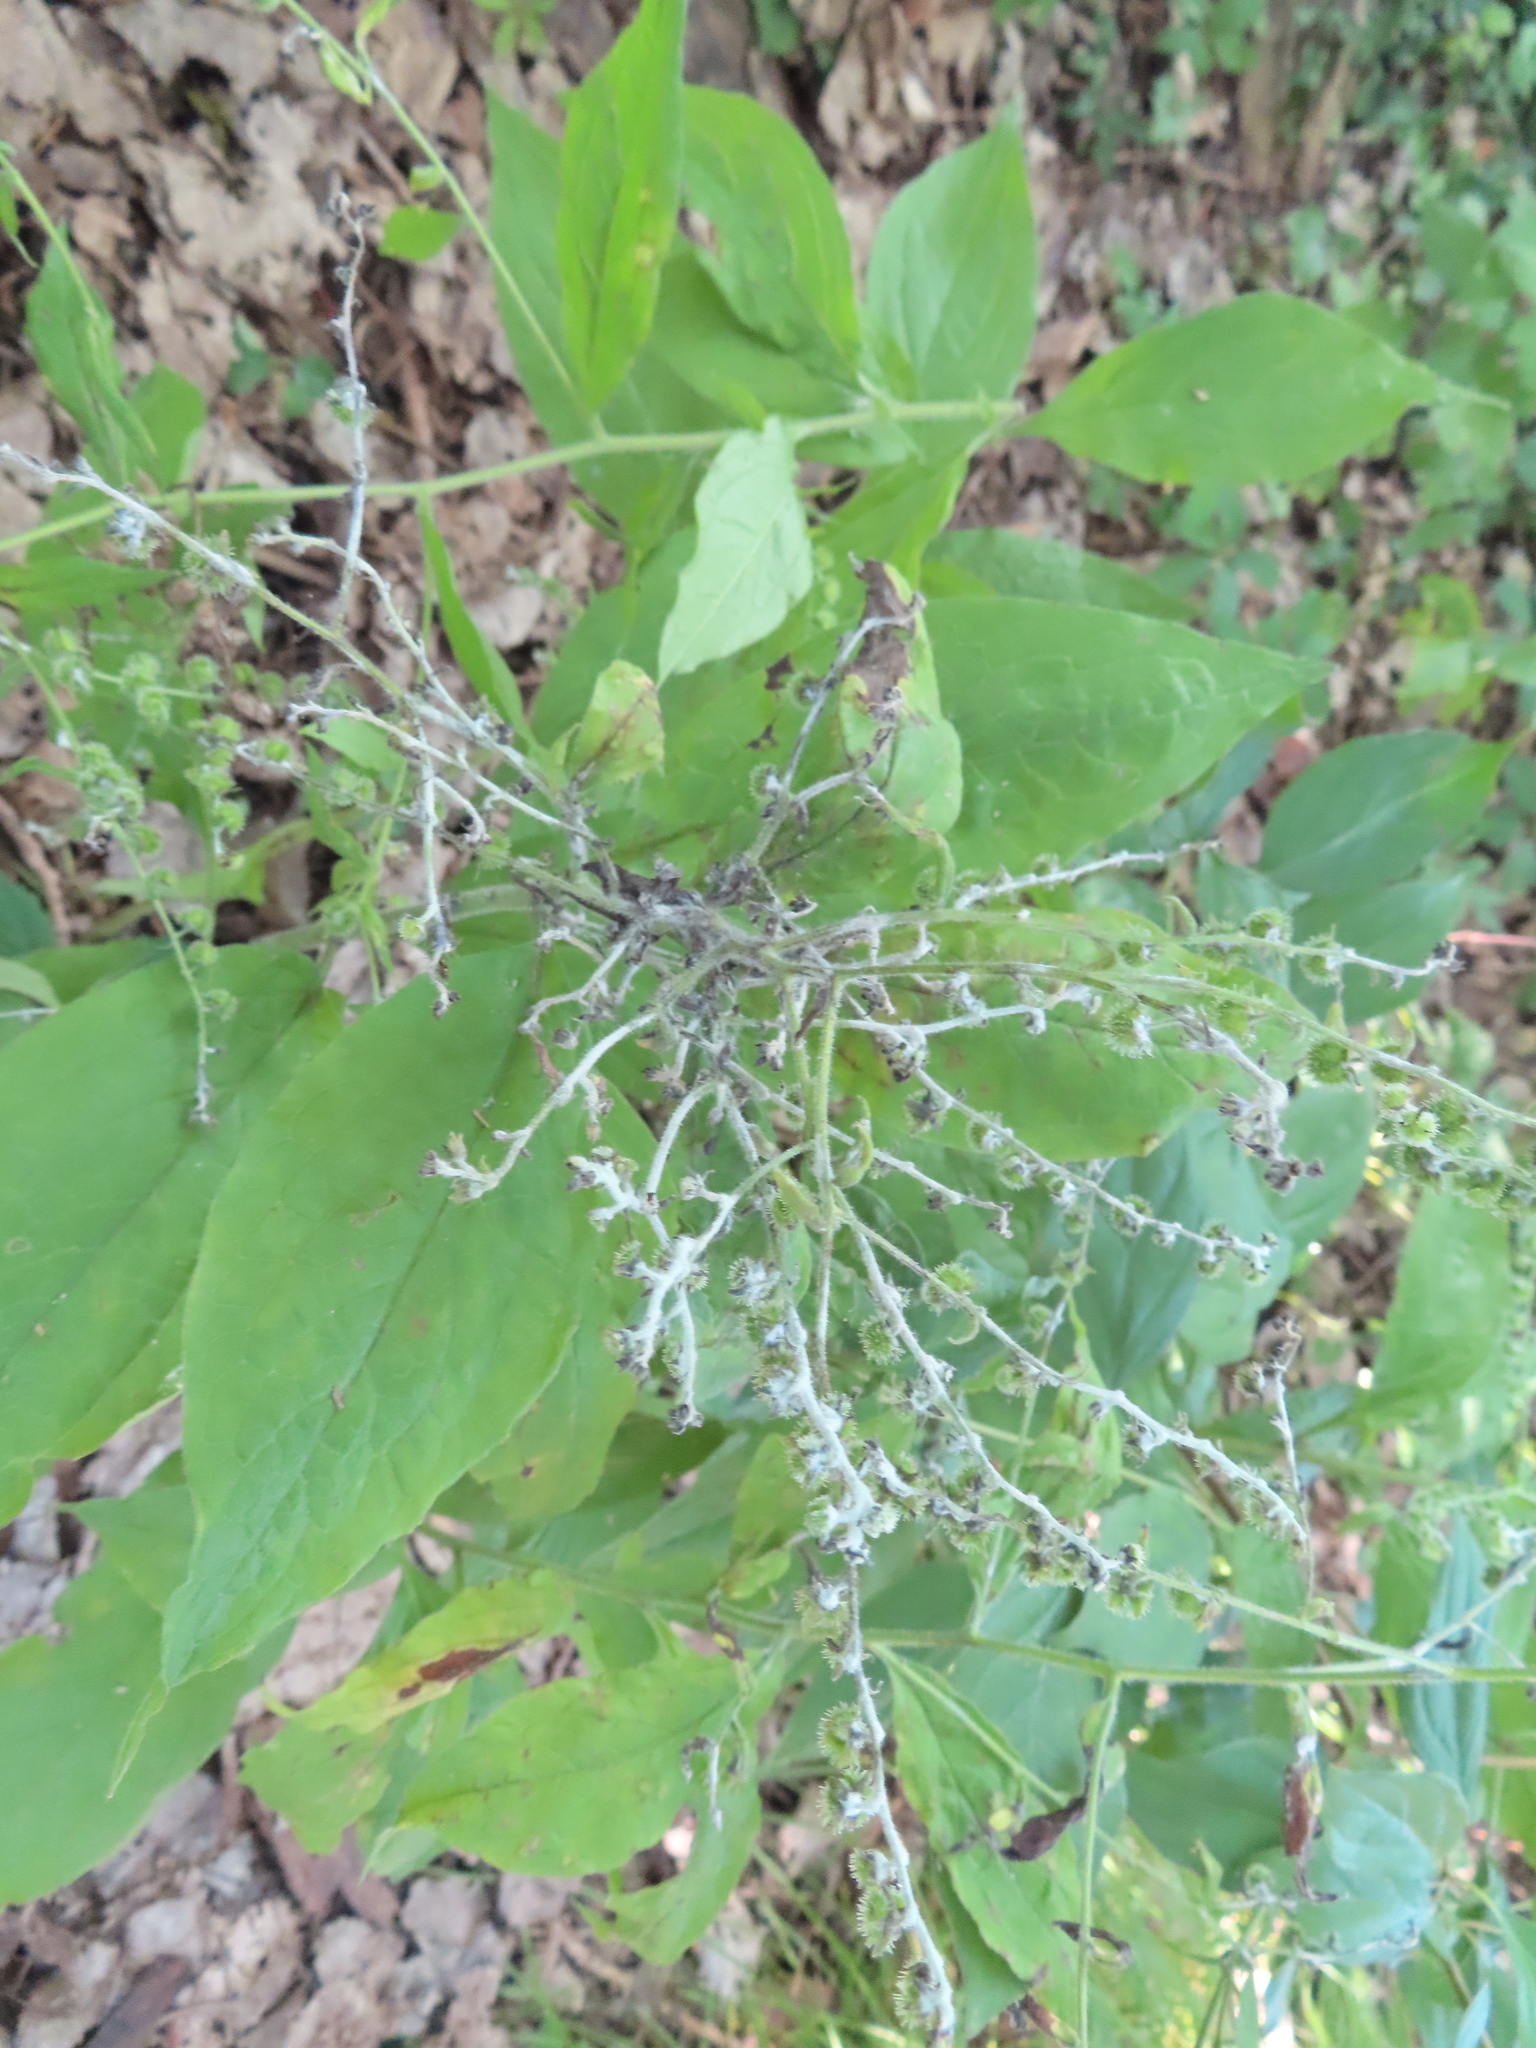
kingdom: Plantae
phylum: Tracheophyta
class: Magnoliopsida
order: Boraginales
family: Boraginaceae
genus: Hackelia
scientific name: Hackelia virginiana
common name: Beggar's-lice
